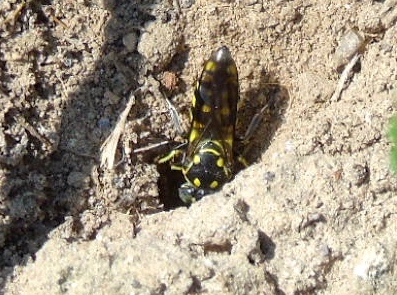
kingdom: Animalia
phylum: Arthropoda
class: Insecta
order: Hymenoptera
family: Crabronidae
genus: Bicyrtes
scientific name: Bicyrtes viduatus
